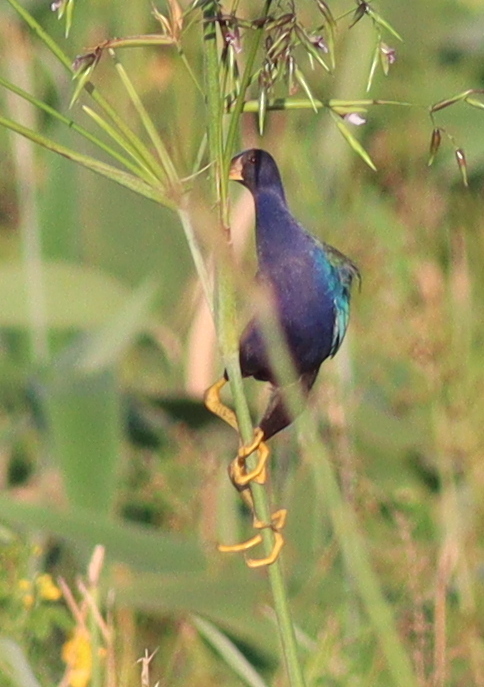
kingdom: Animalia
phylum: Chordata
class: Aves
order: Gruiformes
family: Rallidae
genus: Porphyrio
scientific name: Porphyrio martinica
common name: Purple gallinule
